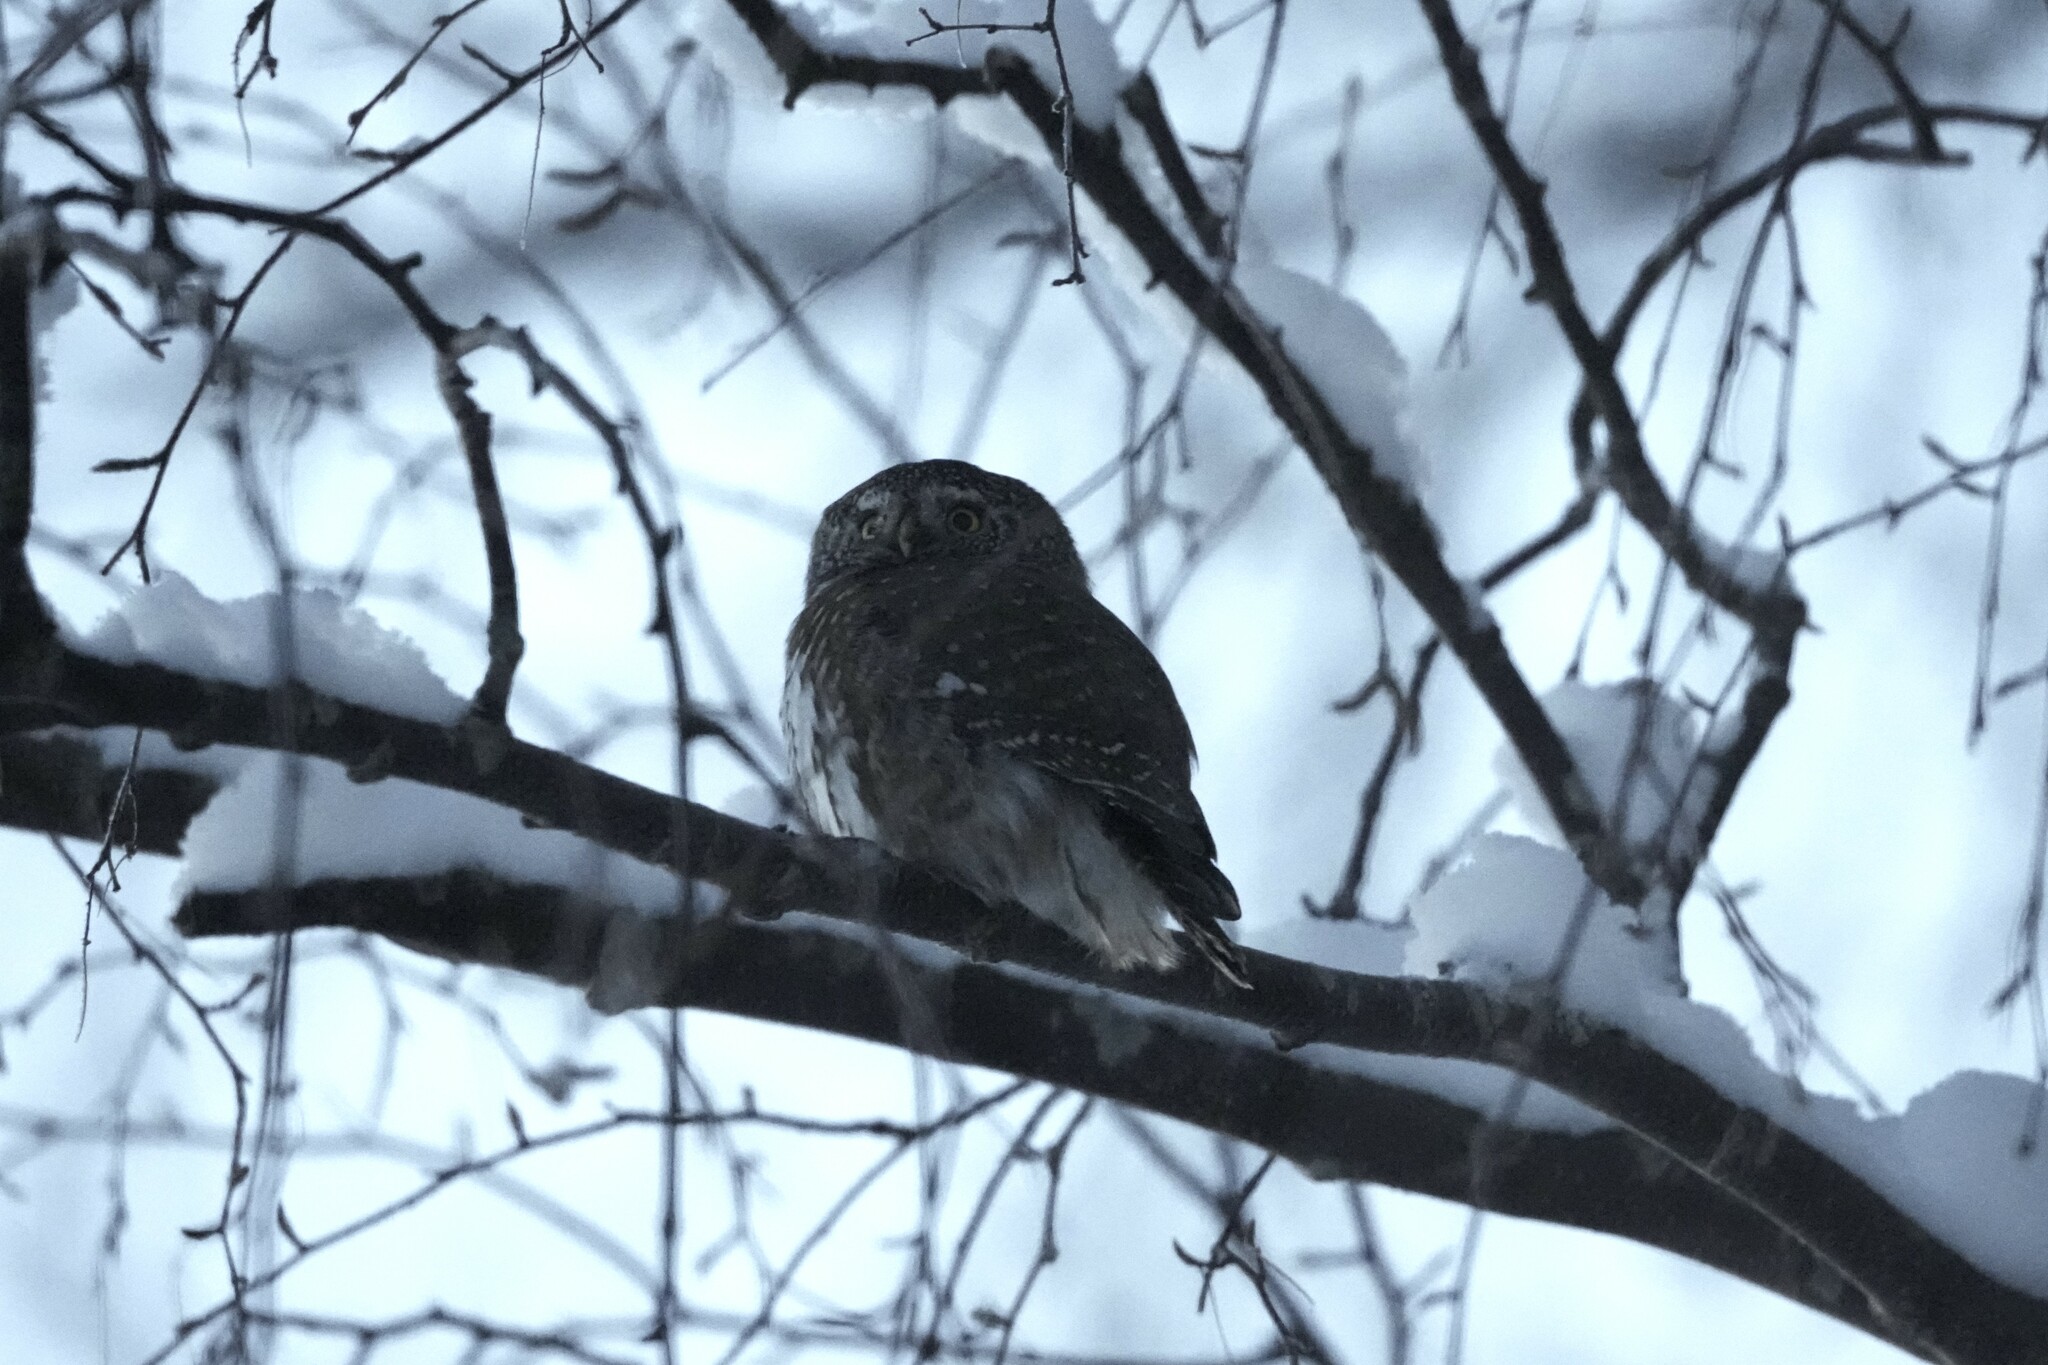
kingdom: Animalia
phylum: Chordata
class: Aves
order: Strigiformes
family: Strigidae
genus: Glaucidium
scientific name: Glaucidium passerinum
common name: Eurasian pygmy owl
